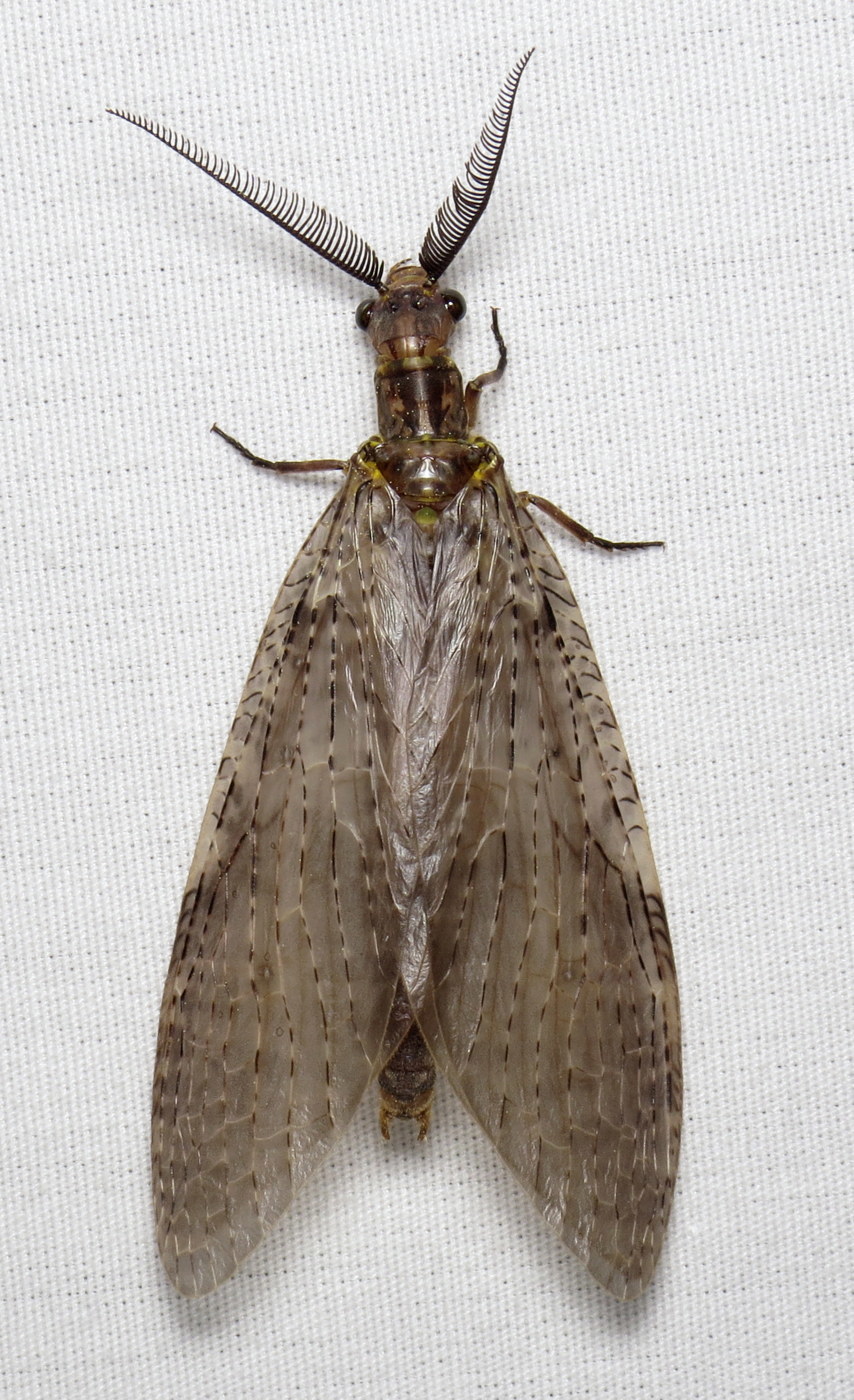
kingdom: Animalia
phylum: Arthropoda
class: Insecta
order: Megaloptera
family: Corydalidae
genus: Chauliodes
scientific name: Chauliodes pectinicornis
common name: Summer fishfly
